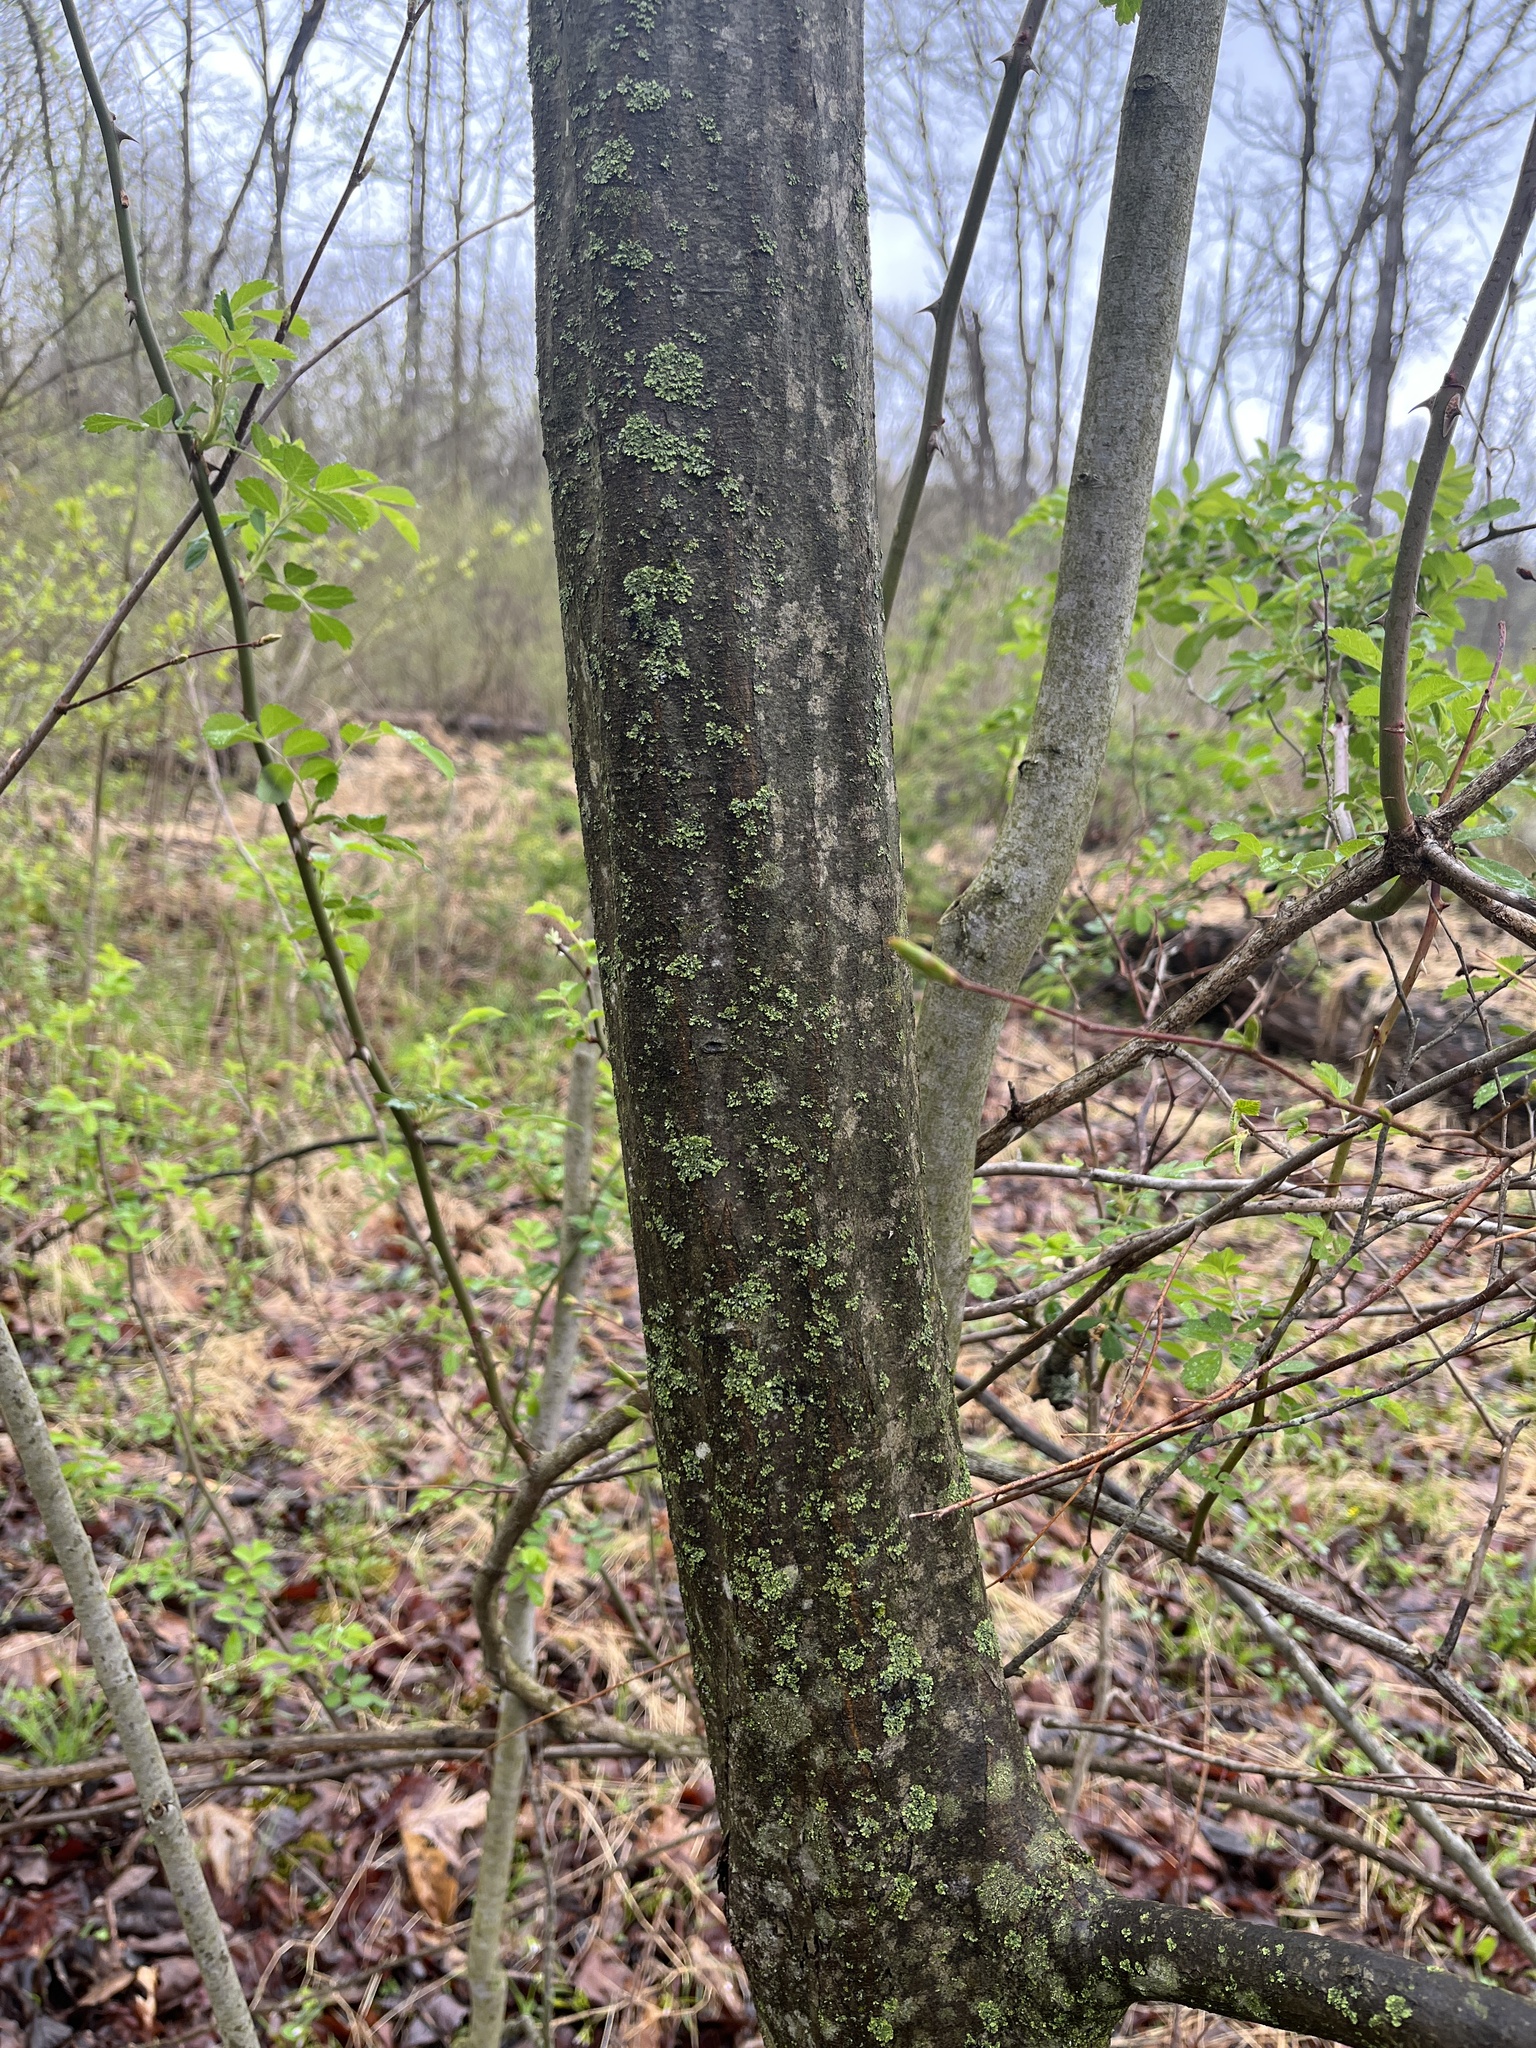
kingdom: Plantae
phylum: Tracheophyta
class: Magnoliopsida
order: Fagales
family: Betulaceae
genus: Carpinus
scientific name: Carpinus caroliniana
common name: American hornbeam
